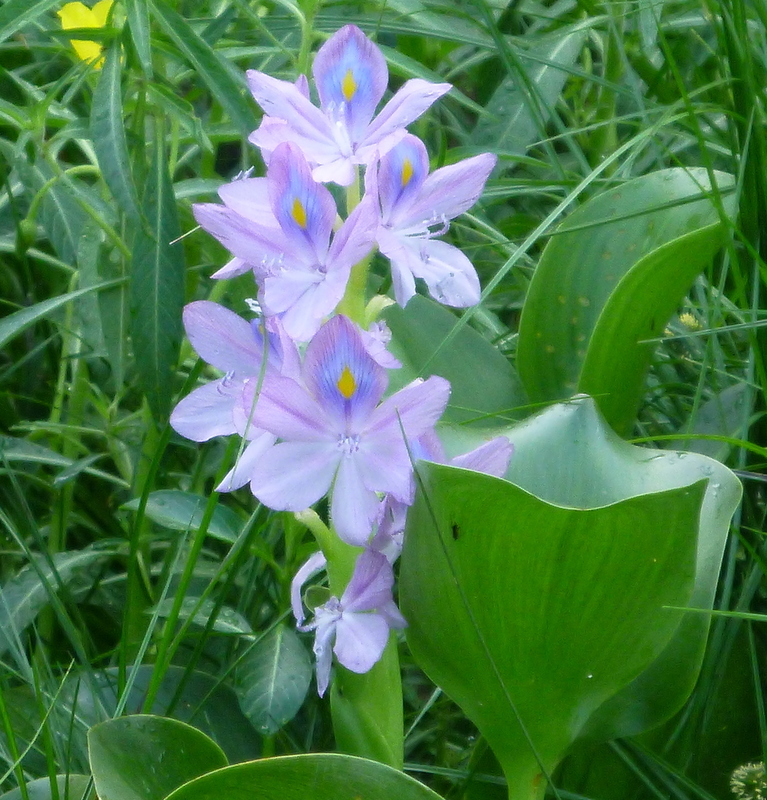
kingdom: Plantae
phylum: Tracheophyta
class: Liliopsida
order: Commelinales
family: Pontederiaceae
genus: Pontederia
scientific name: Pontederia crassipes
